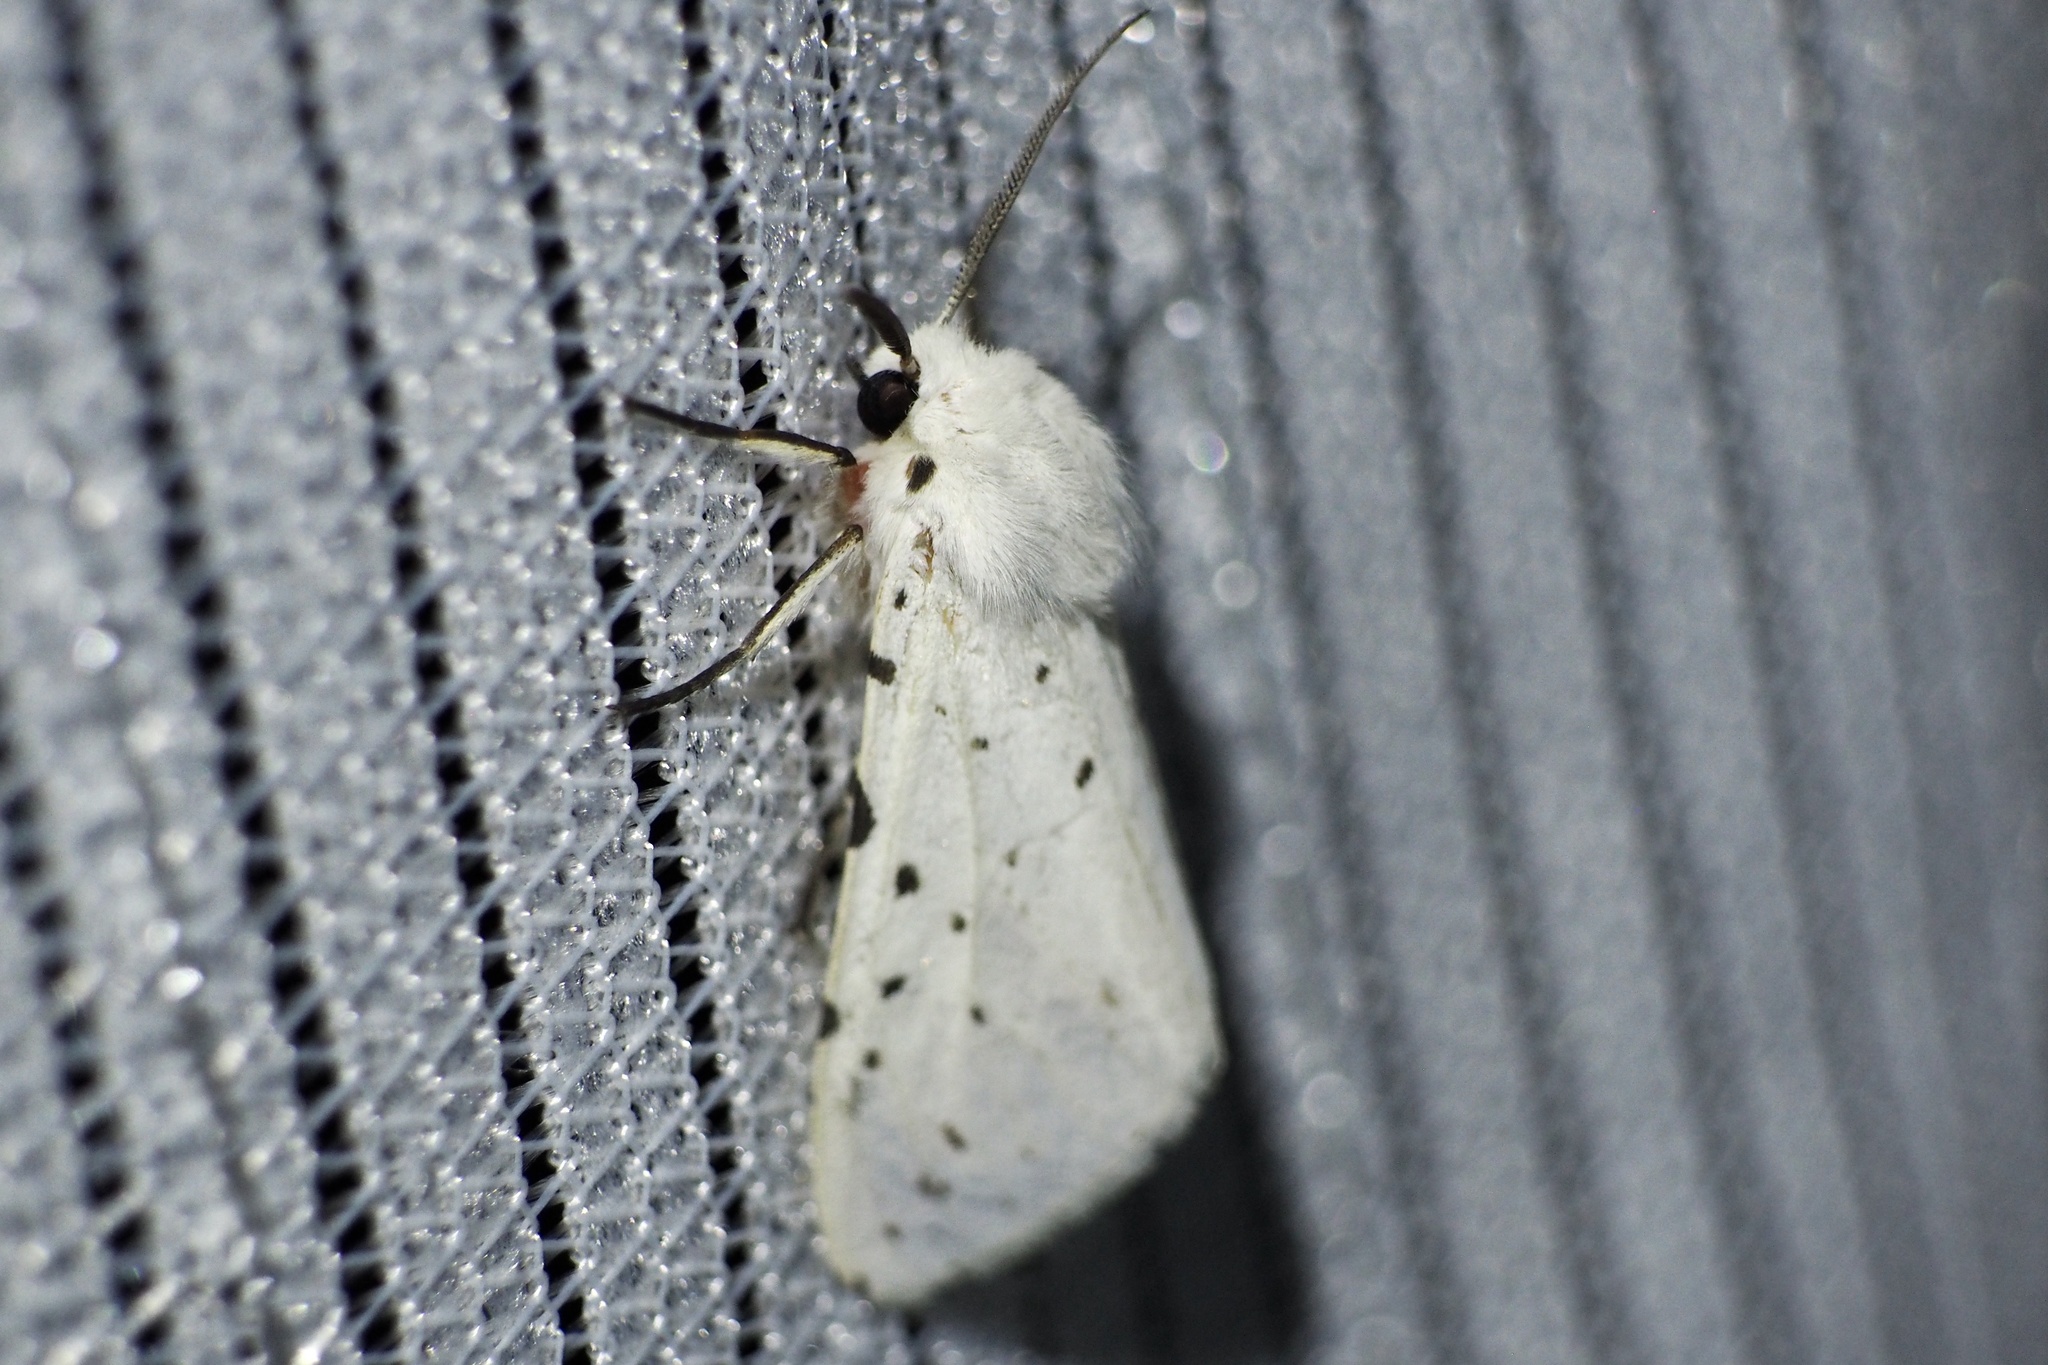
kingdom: Animalia
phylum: Arthropoda
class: Insecta
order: Lepidoptera
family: Erebidae
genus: Spilosoma
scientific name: Spilosoma punctaria
